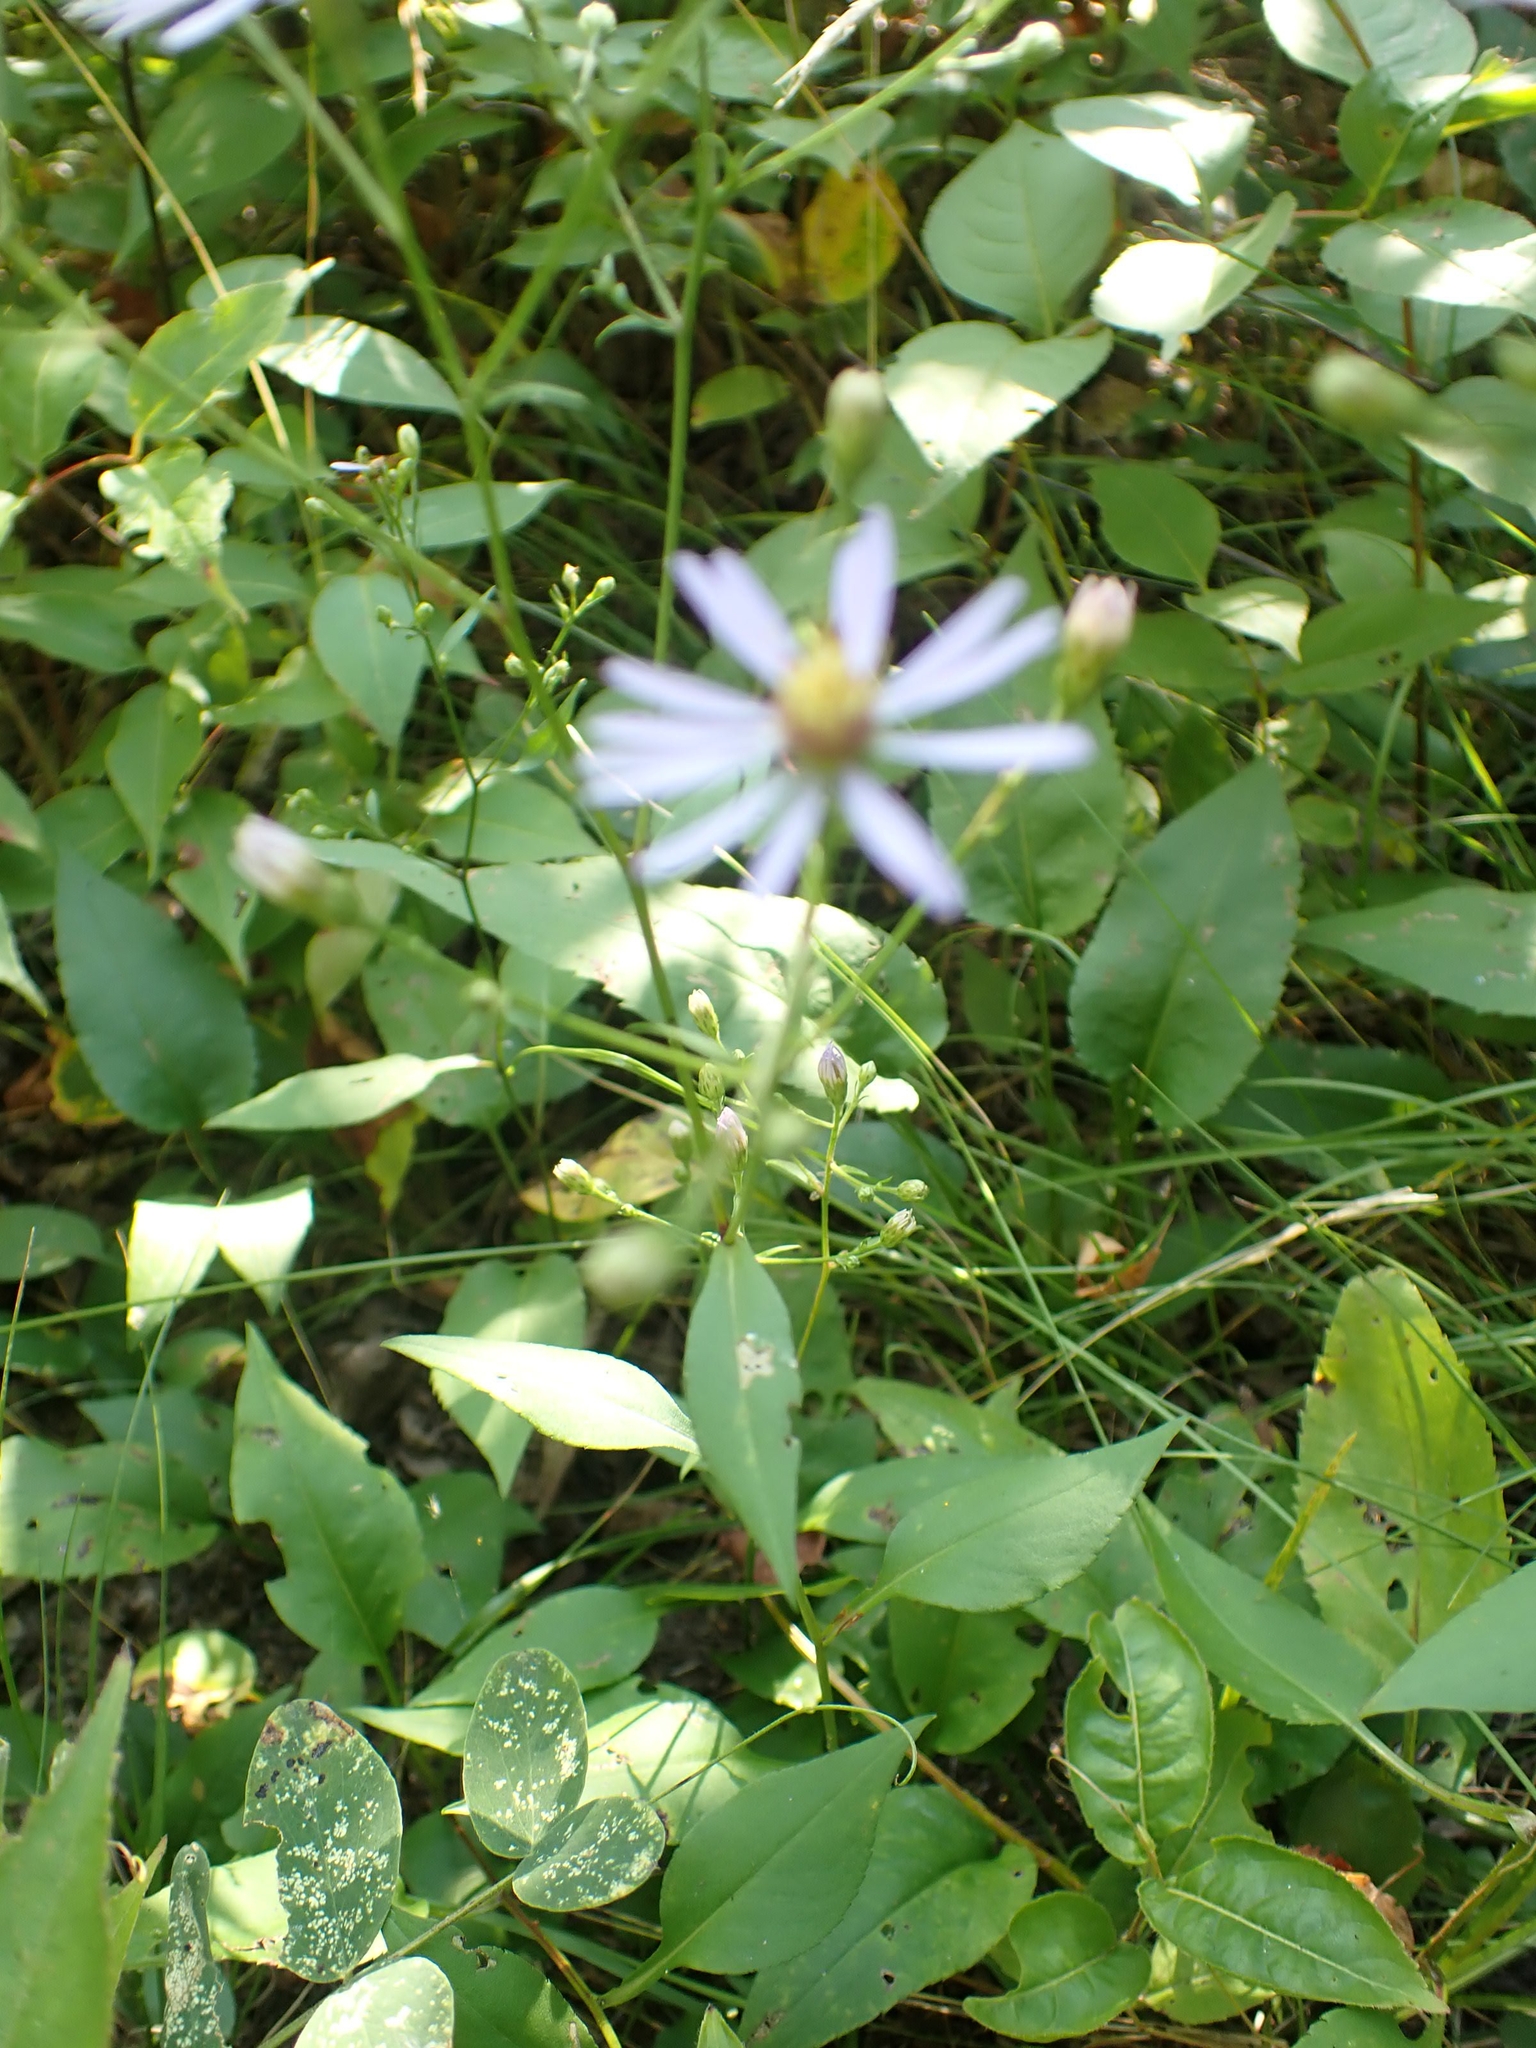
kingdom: Plantae
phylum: Tracheophyta
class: Magnoliopsida
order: Asterales
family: Asteraceae
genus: Symphyotrichum
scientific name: Symphyotrichum ciliolatum
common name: Fringed blue aster
